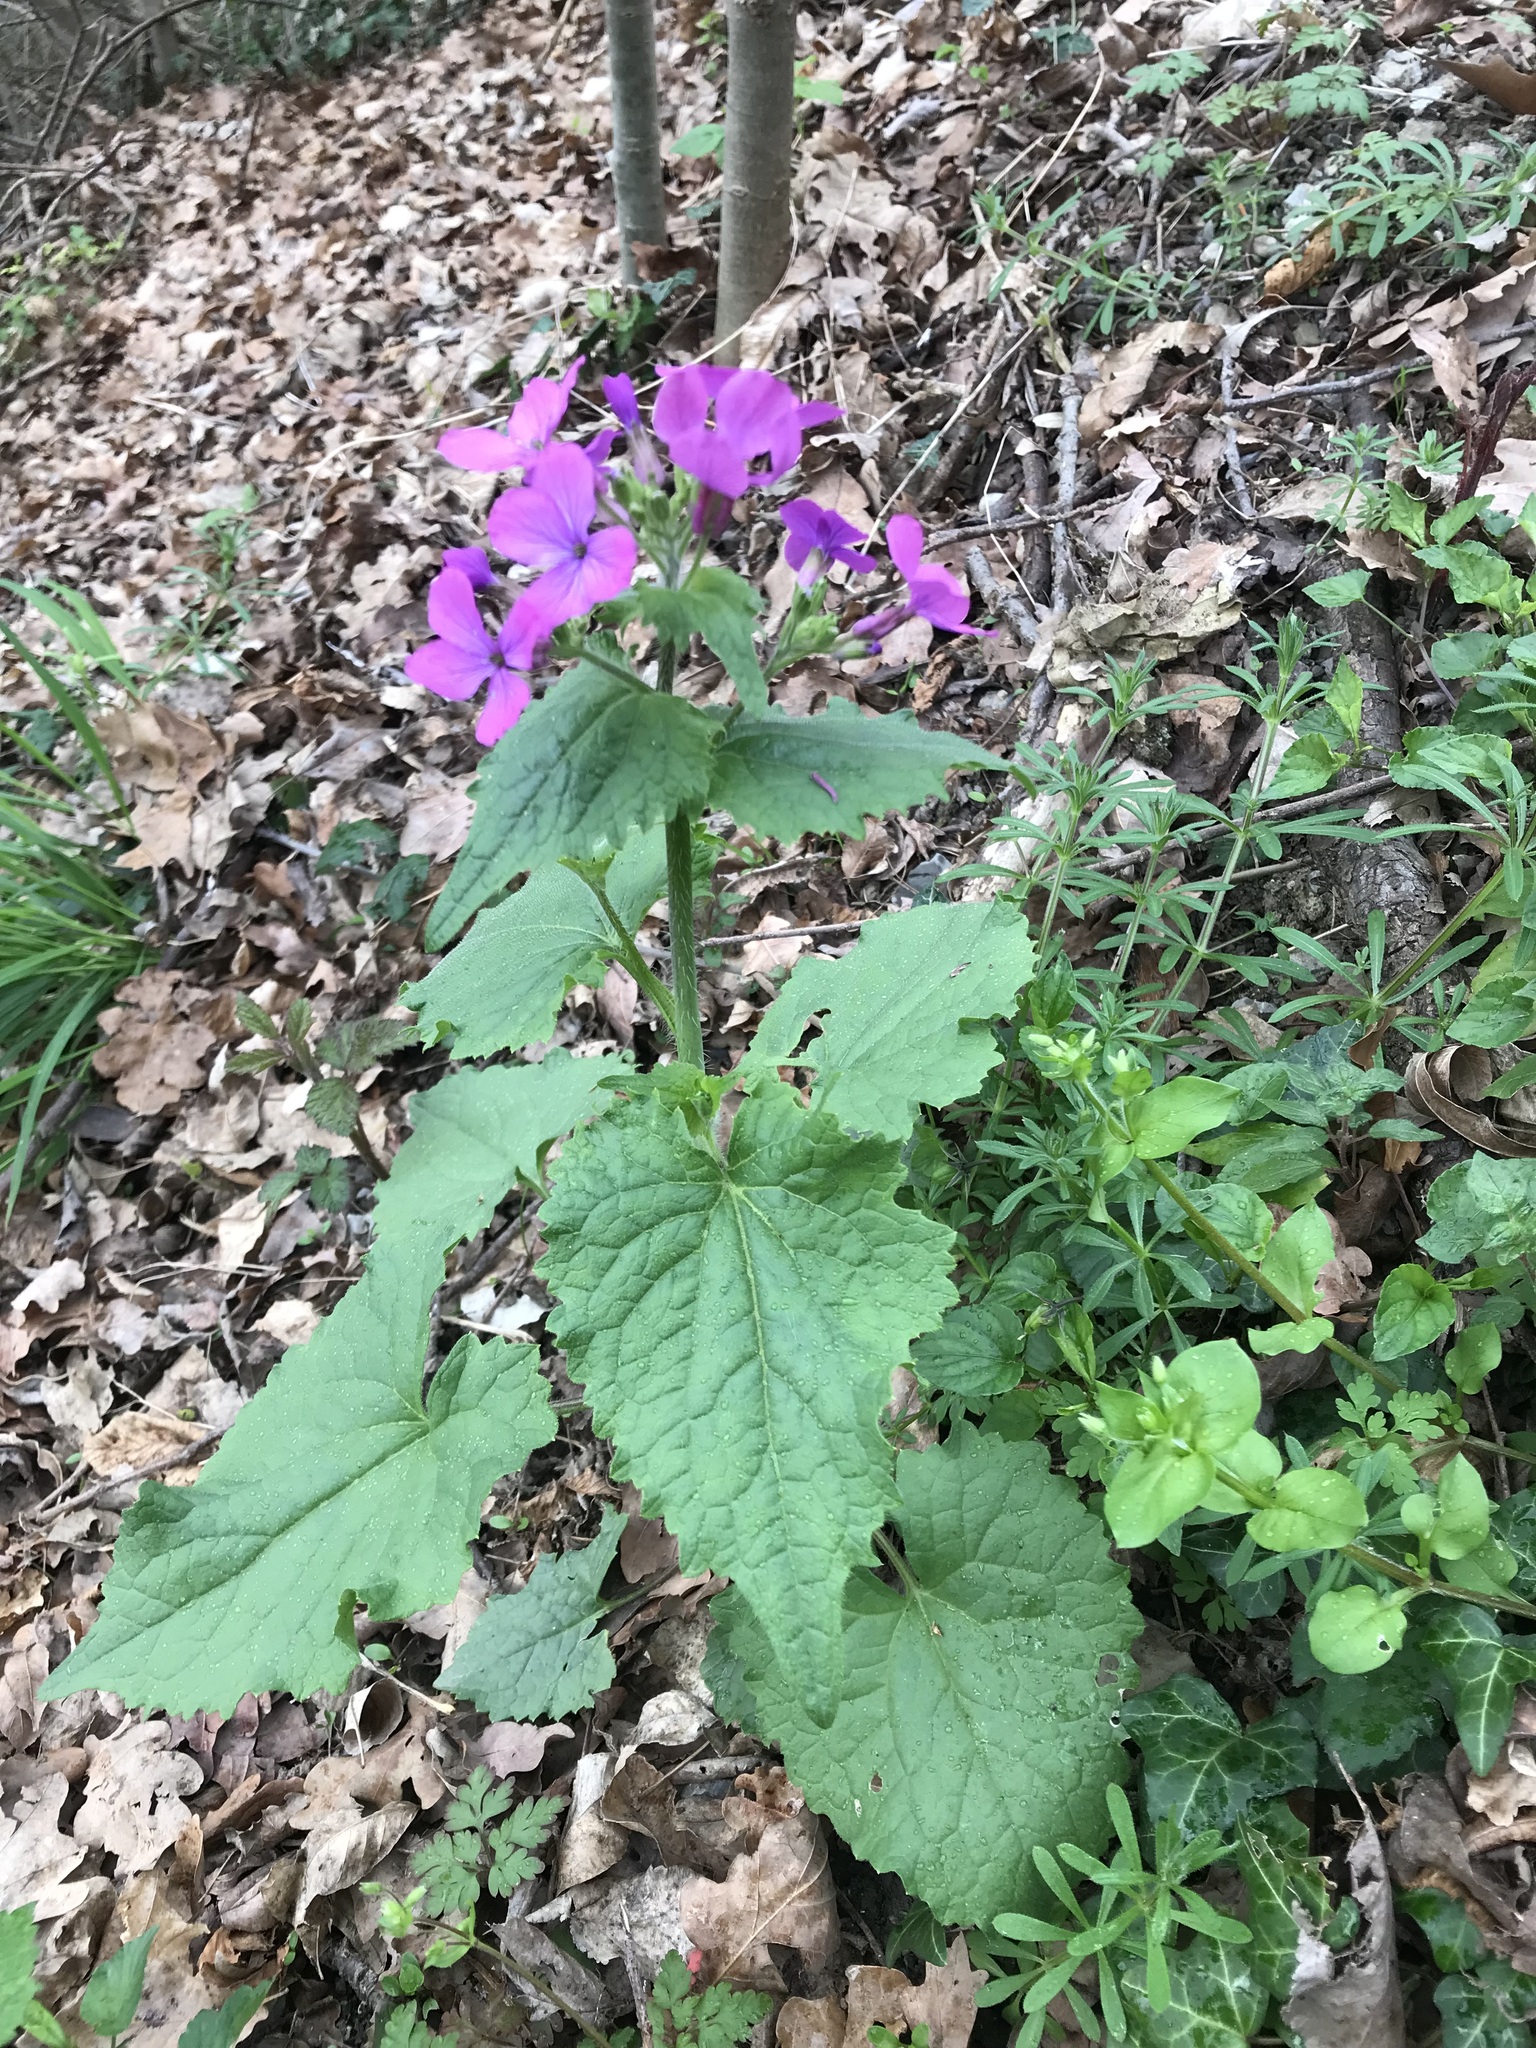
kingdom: Plantae
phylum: Tracheophyta
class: Magnoliopsida
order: Brassicales
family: Brassicaceae
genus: Lunaria
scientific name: Lunaria annua
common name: Honesty
